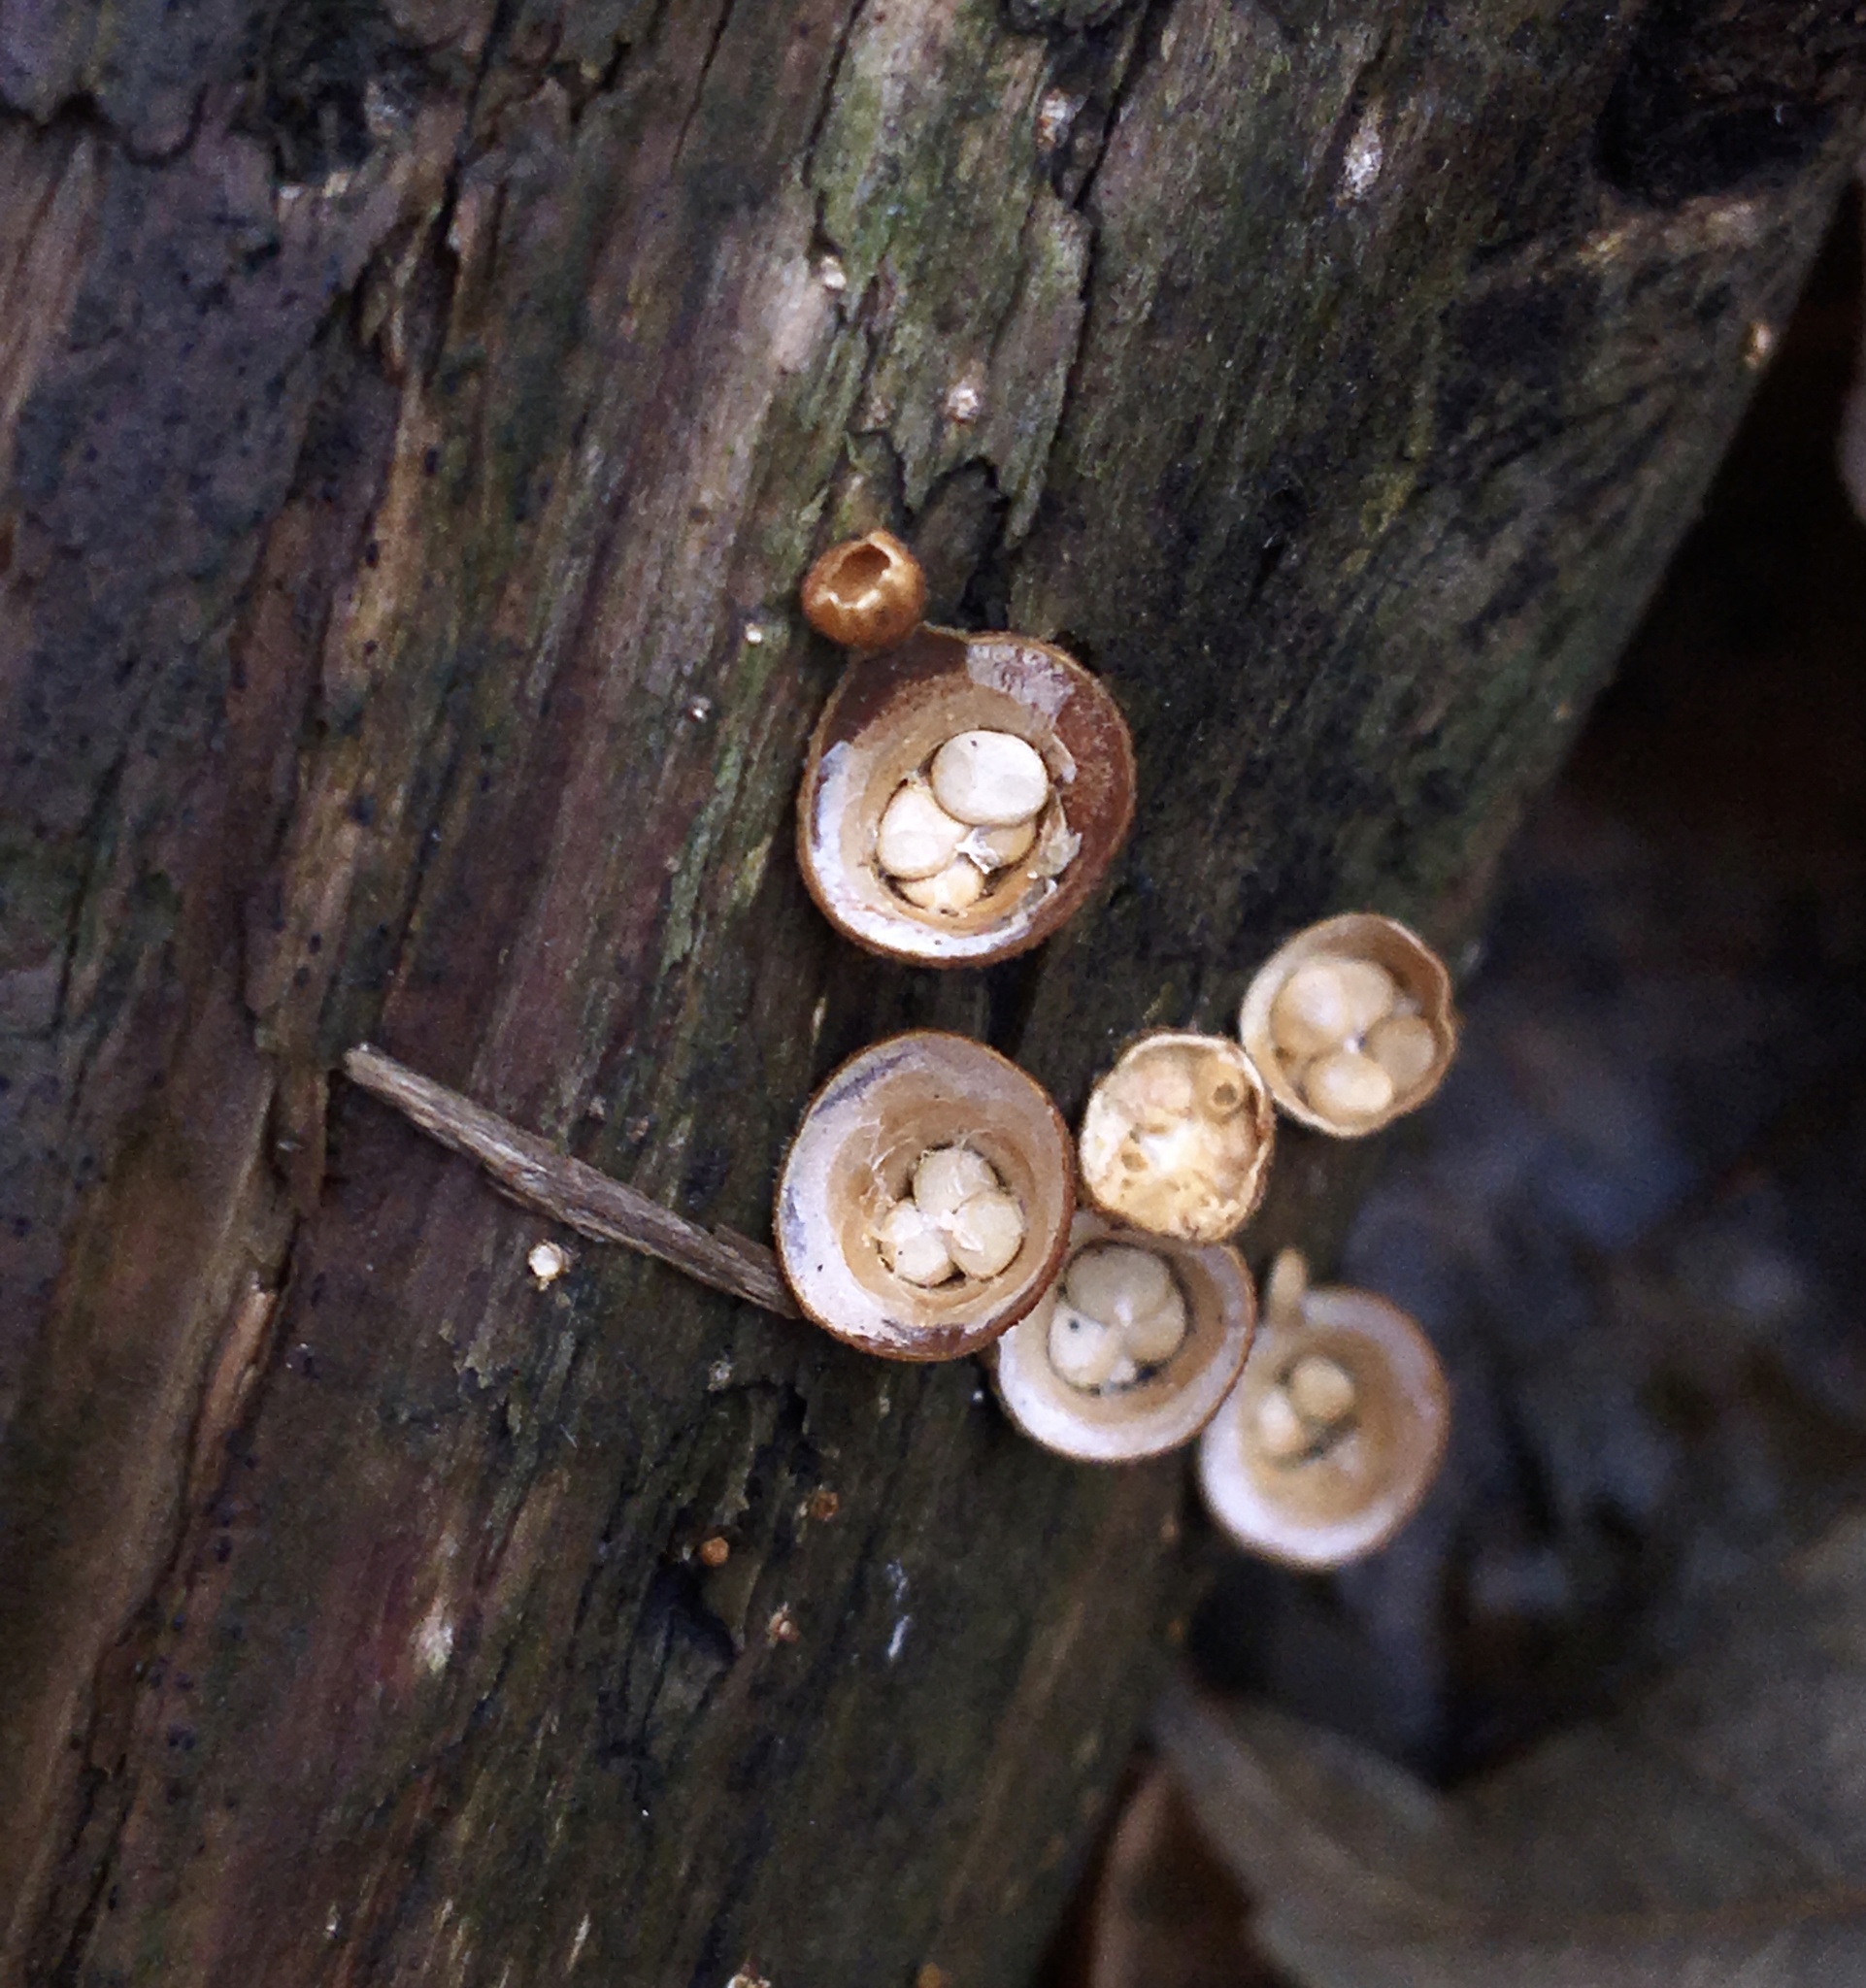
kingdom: Fungi
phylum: Basidiomycota
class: Agaricomycetes
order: Agaricales
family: Nidulariaceae
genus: Crucibulum
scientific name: Crucibulum laeve
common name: Common bird's nest
